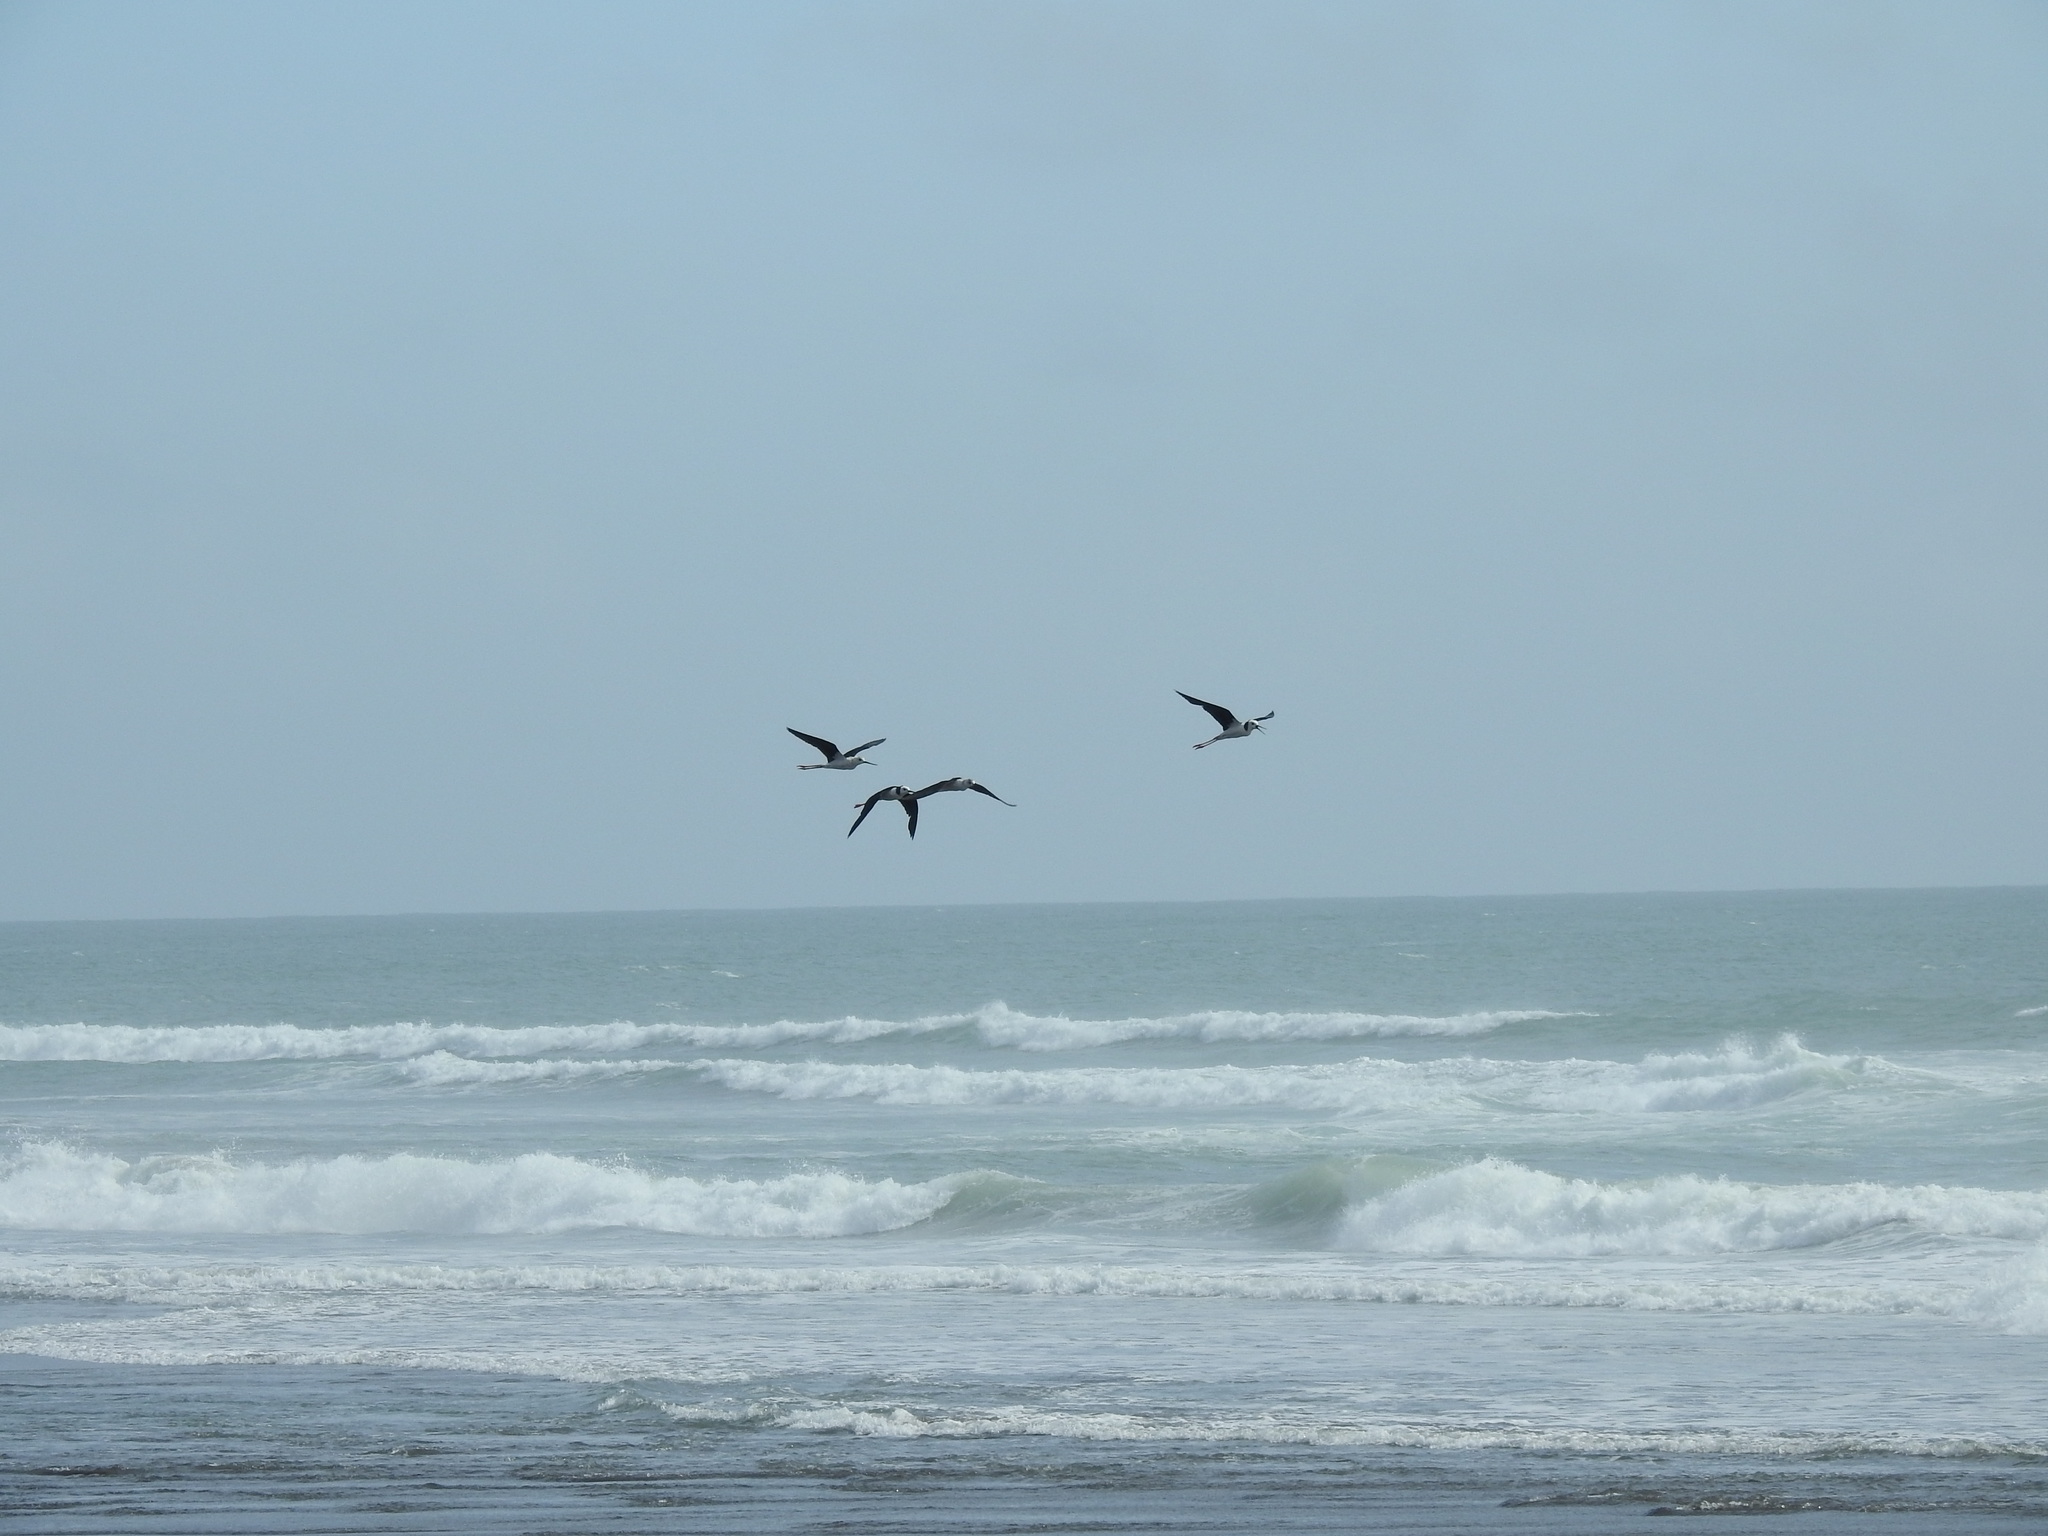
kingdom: Animalia
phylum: Chordata
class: Aves
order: Charadriiformes
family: Recurvirostridae
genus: Himantopus
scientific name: Himantopus leucocephalus
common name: White-headed stilt
